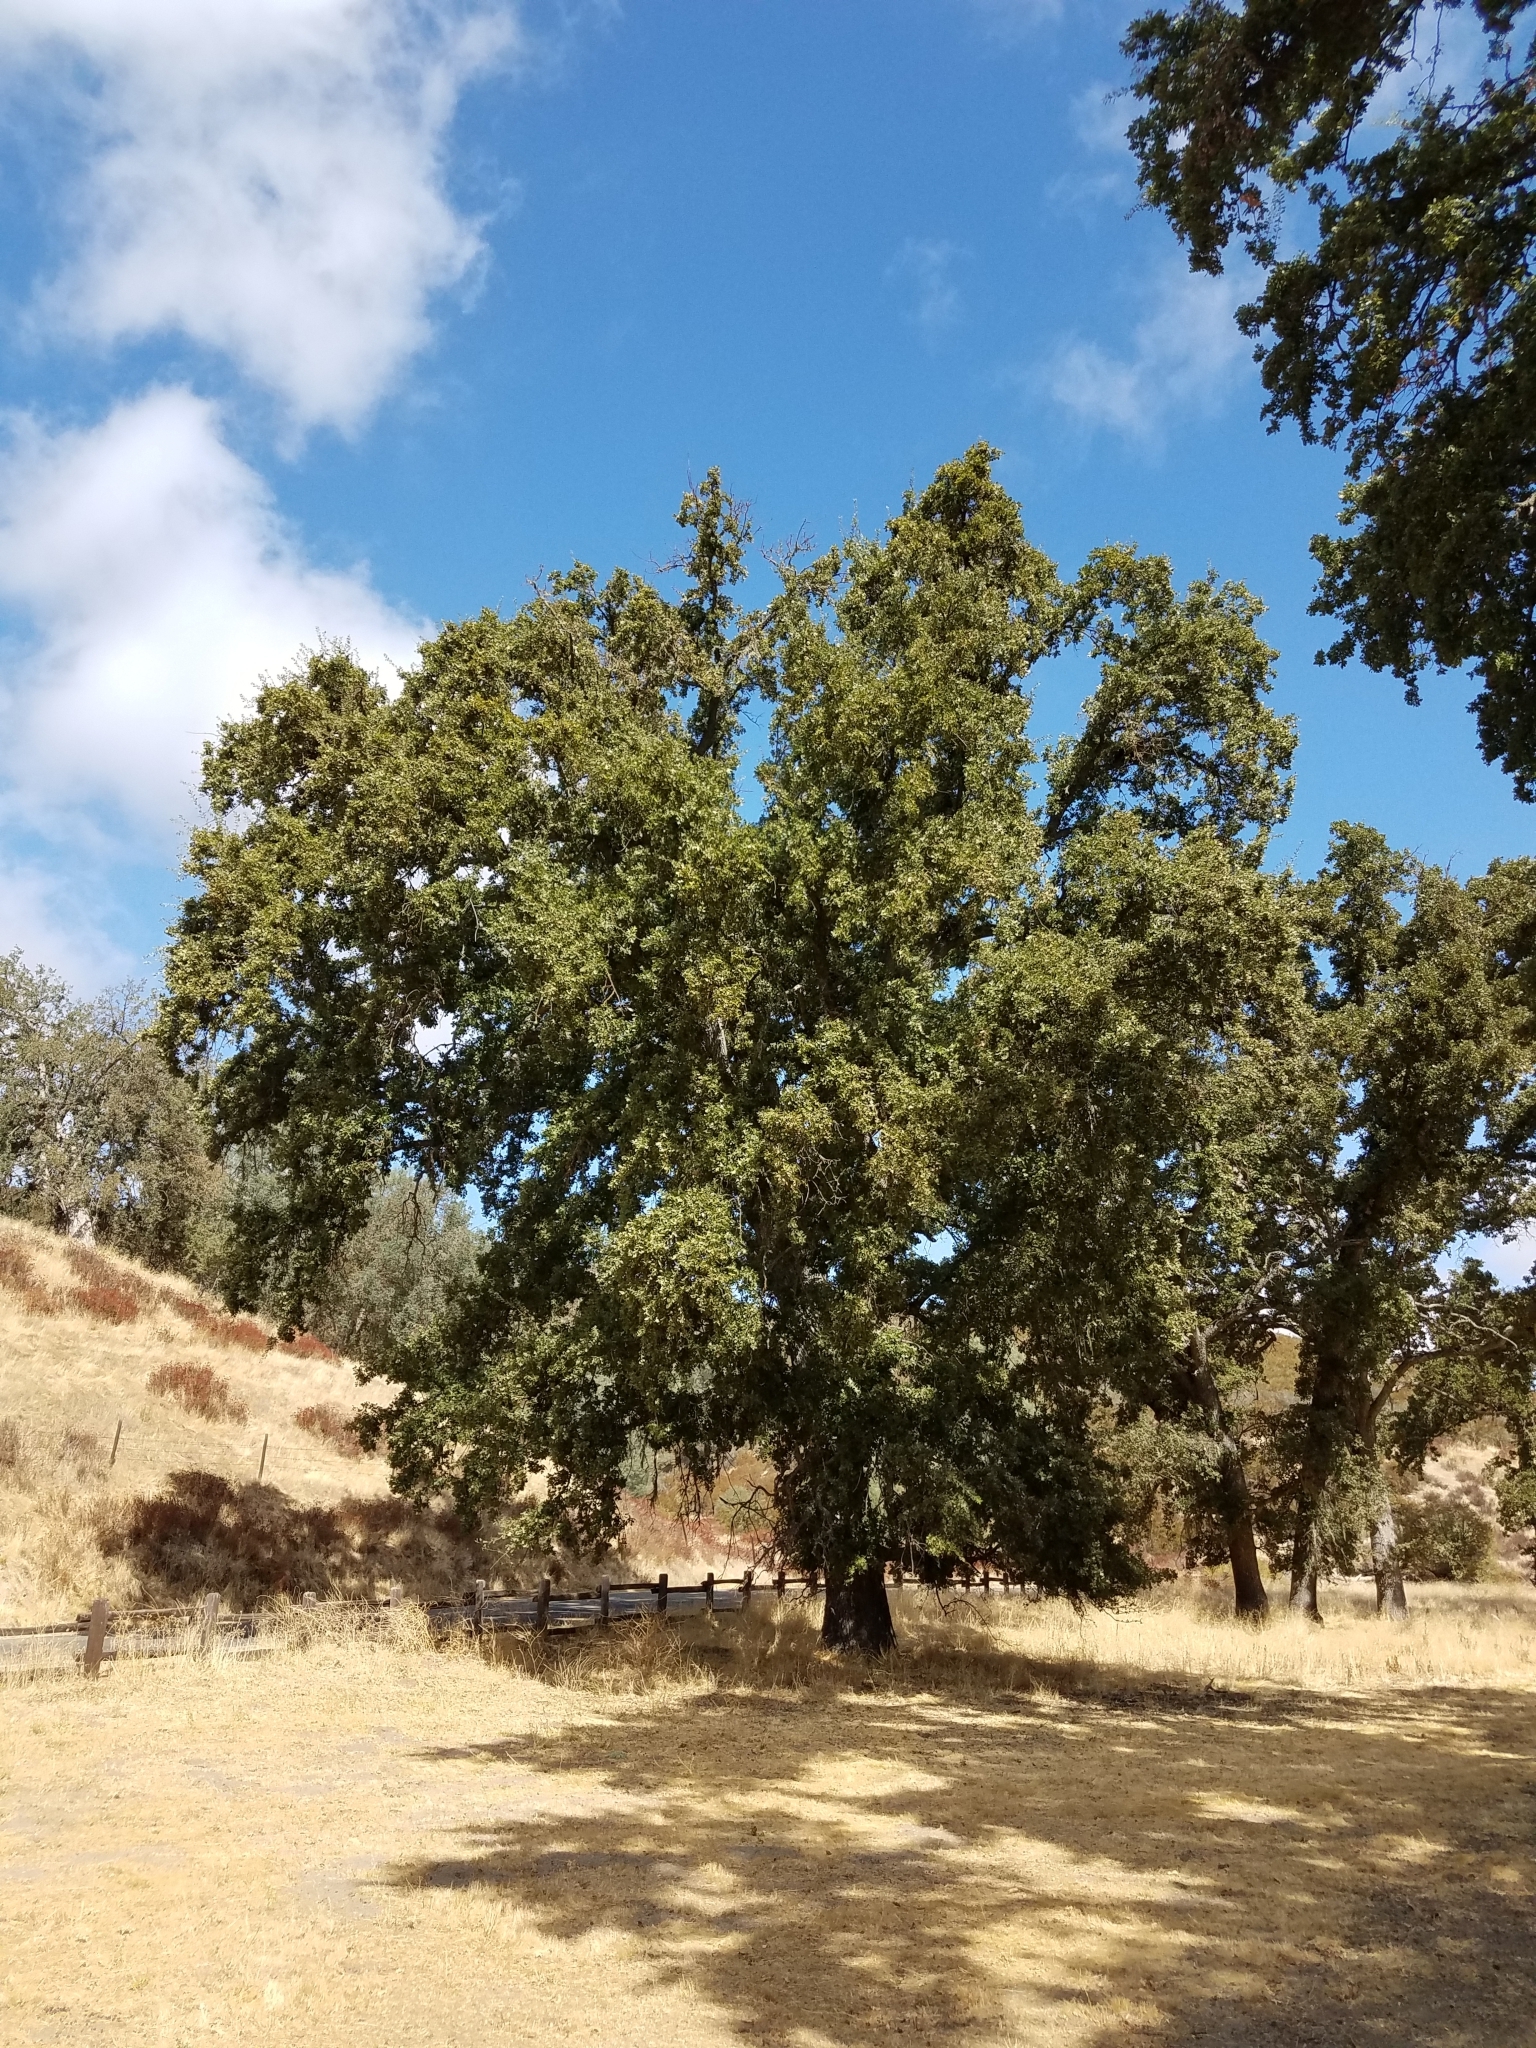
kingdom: Plantae
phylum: Tracheophyta
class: Magnoliopsida
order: Fagales
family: Fagaceae
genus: Quercus
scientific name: Quercus lobata
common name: Valley oak
